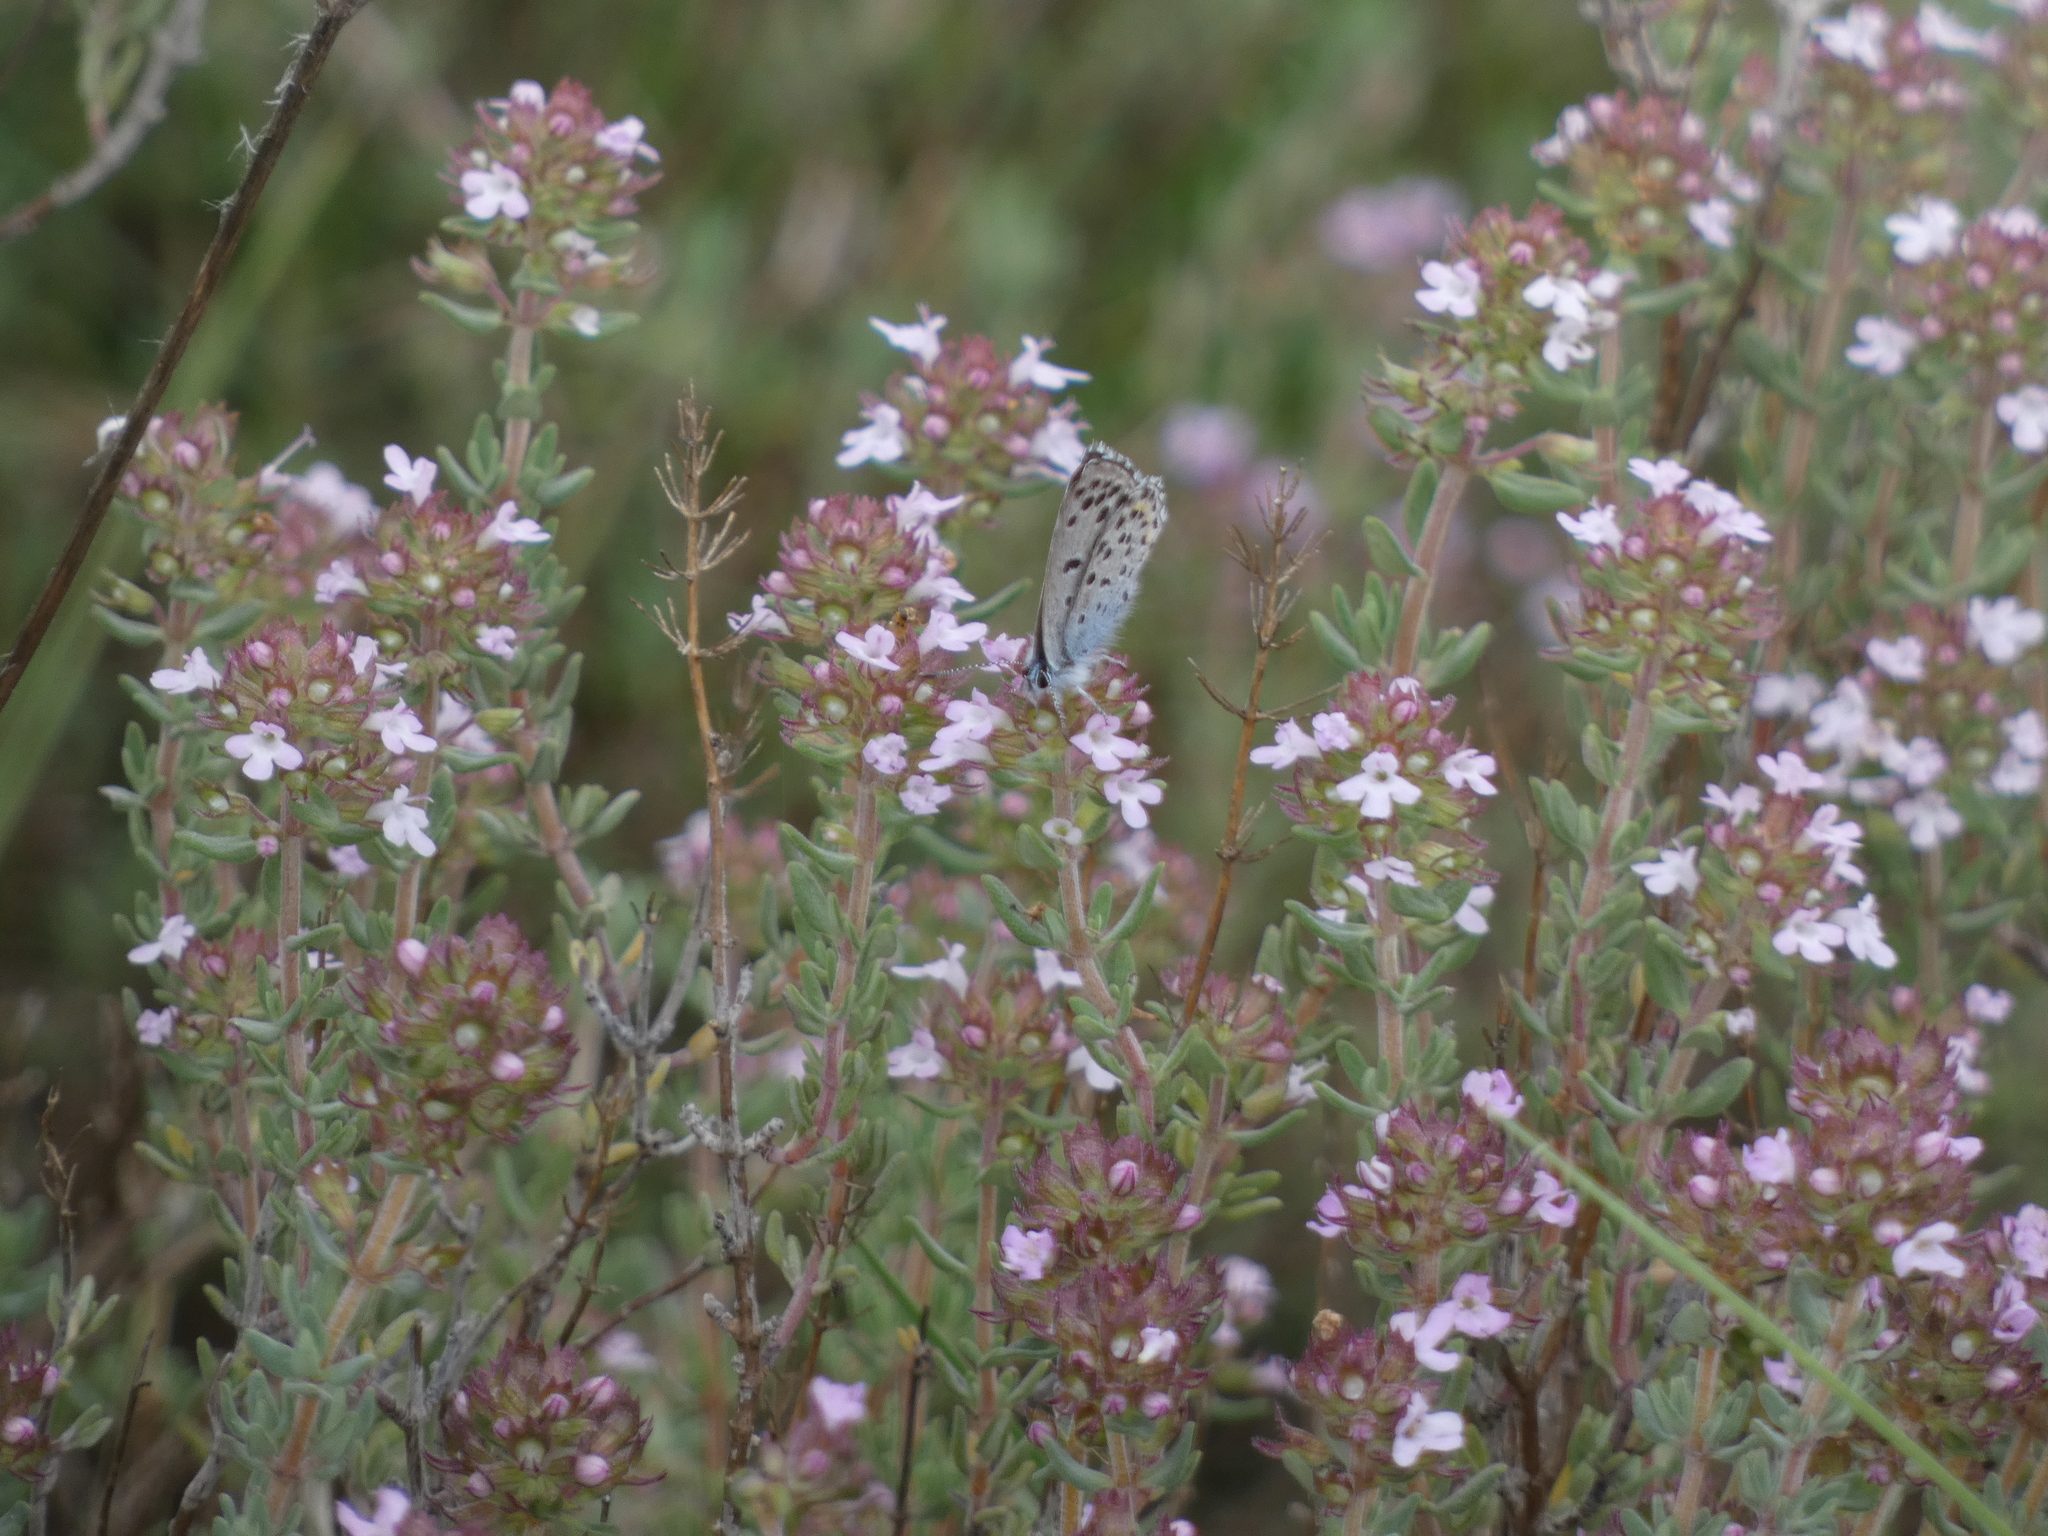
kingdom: Animalia
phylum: Arthropoda
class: Insecta
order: Lepidoptera
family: Lycaenidae
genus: Pseudophilotes
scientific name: Pseudophilotes baton
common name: Baton blue
